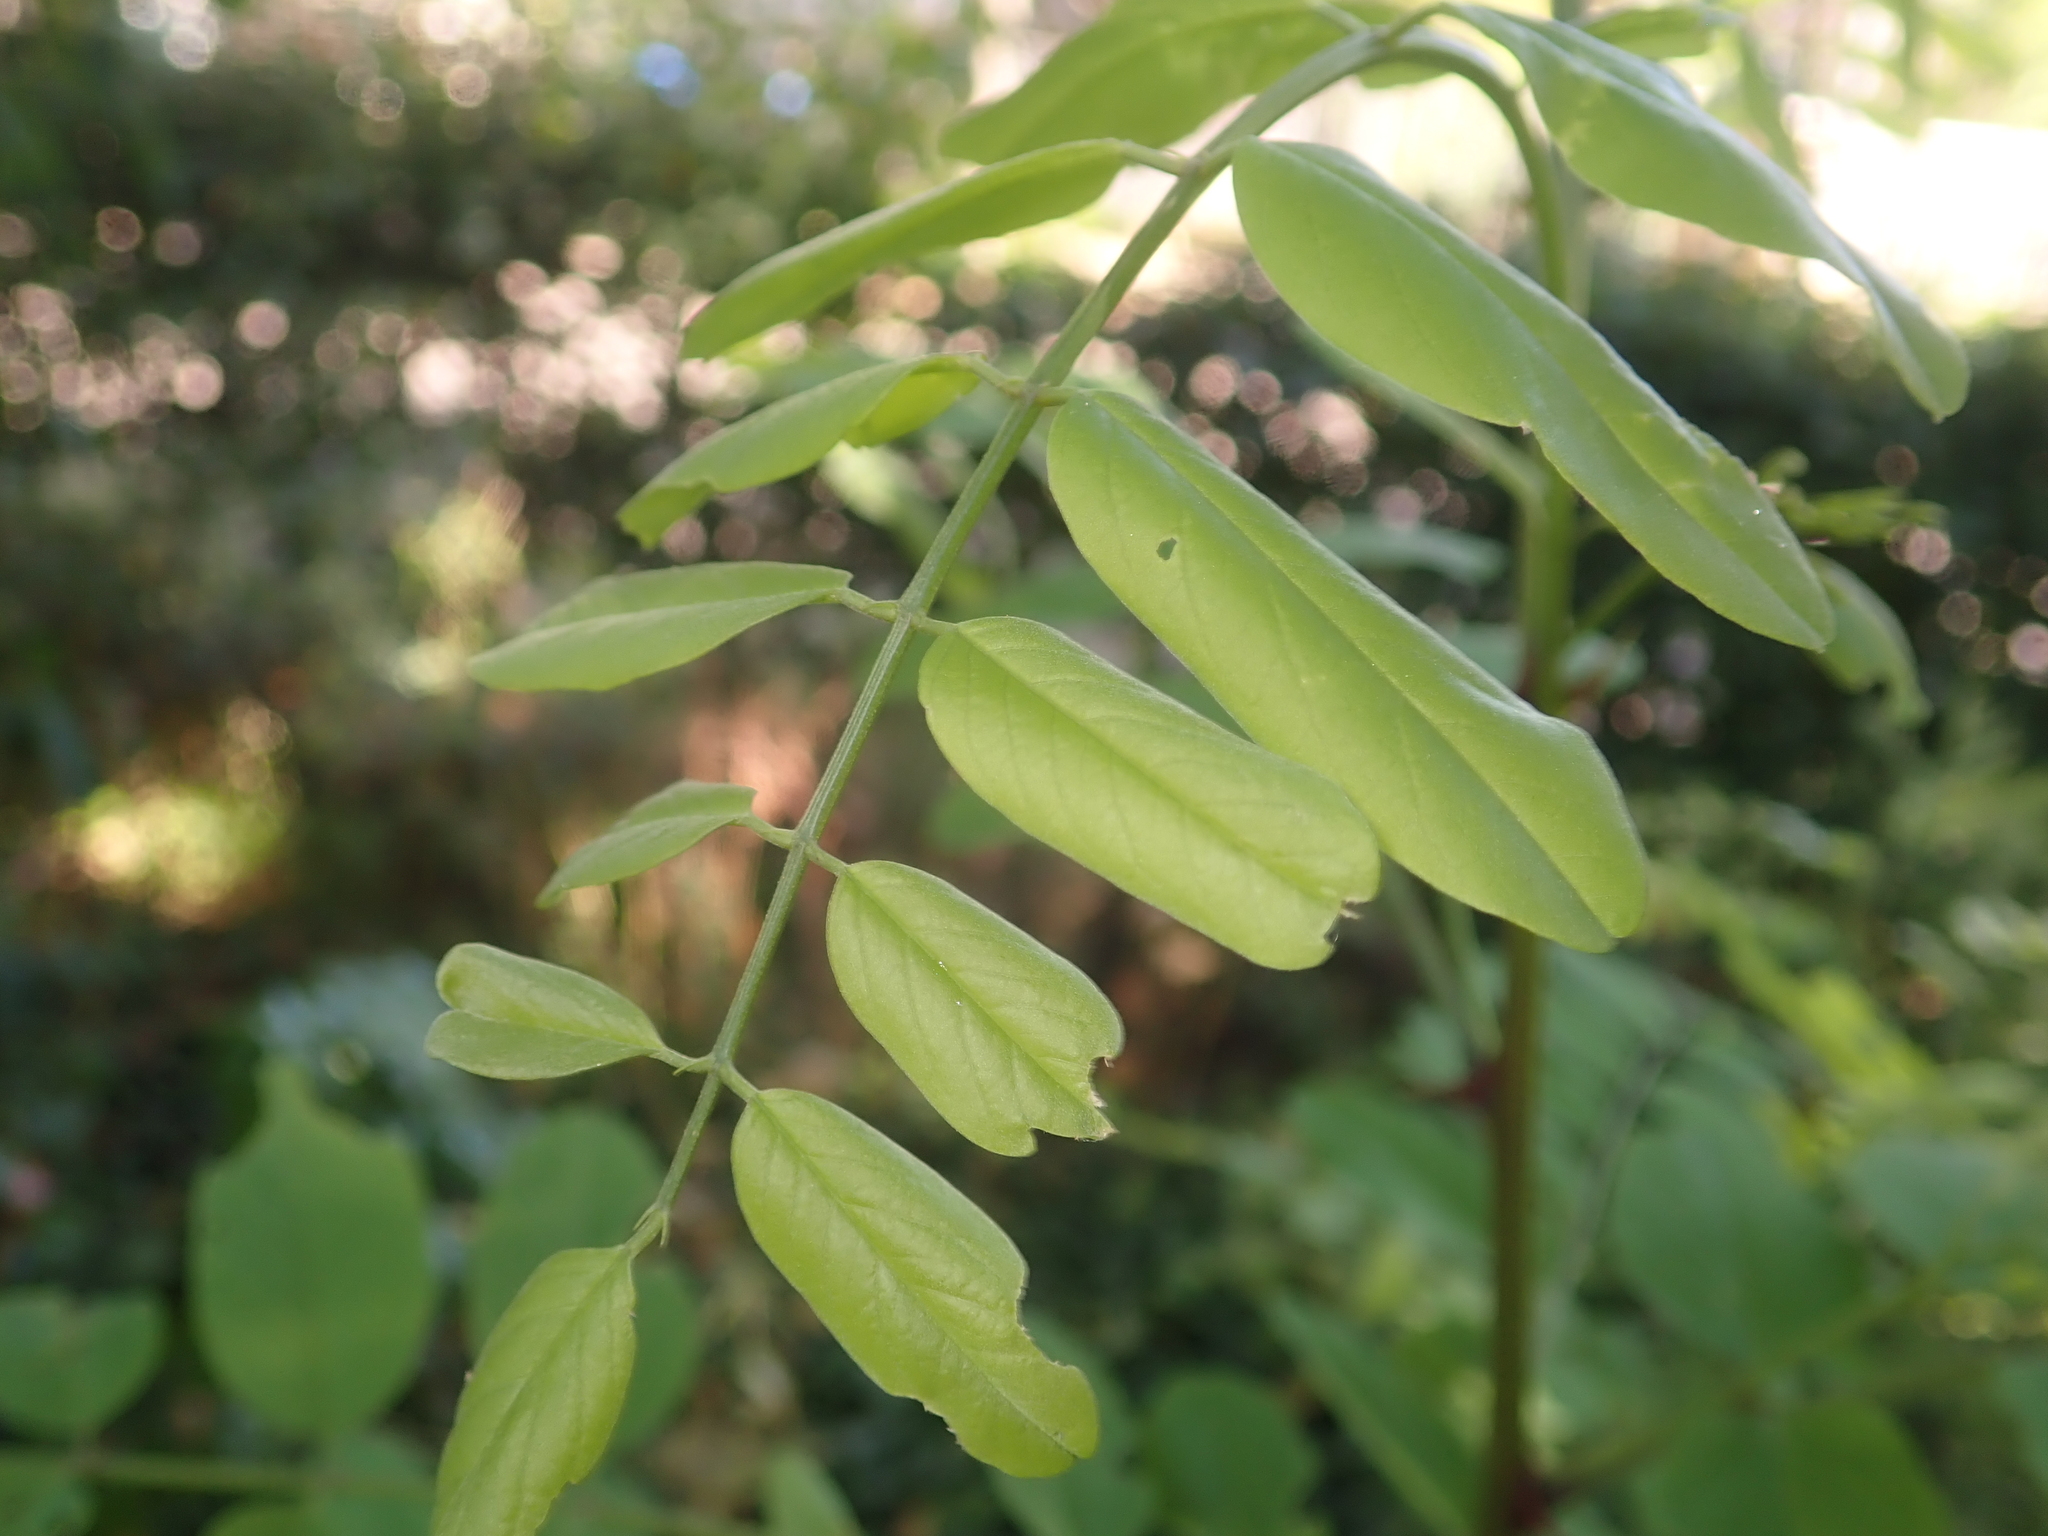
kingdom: Plantae
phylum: Tracheophyta
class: Magnoliopsida
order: Fabales
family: Fabaceae
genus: Robinia
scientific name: Robinia pseudoacacia
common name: Black locust
